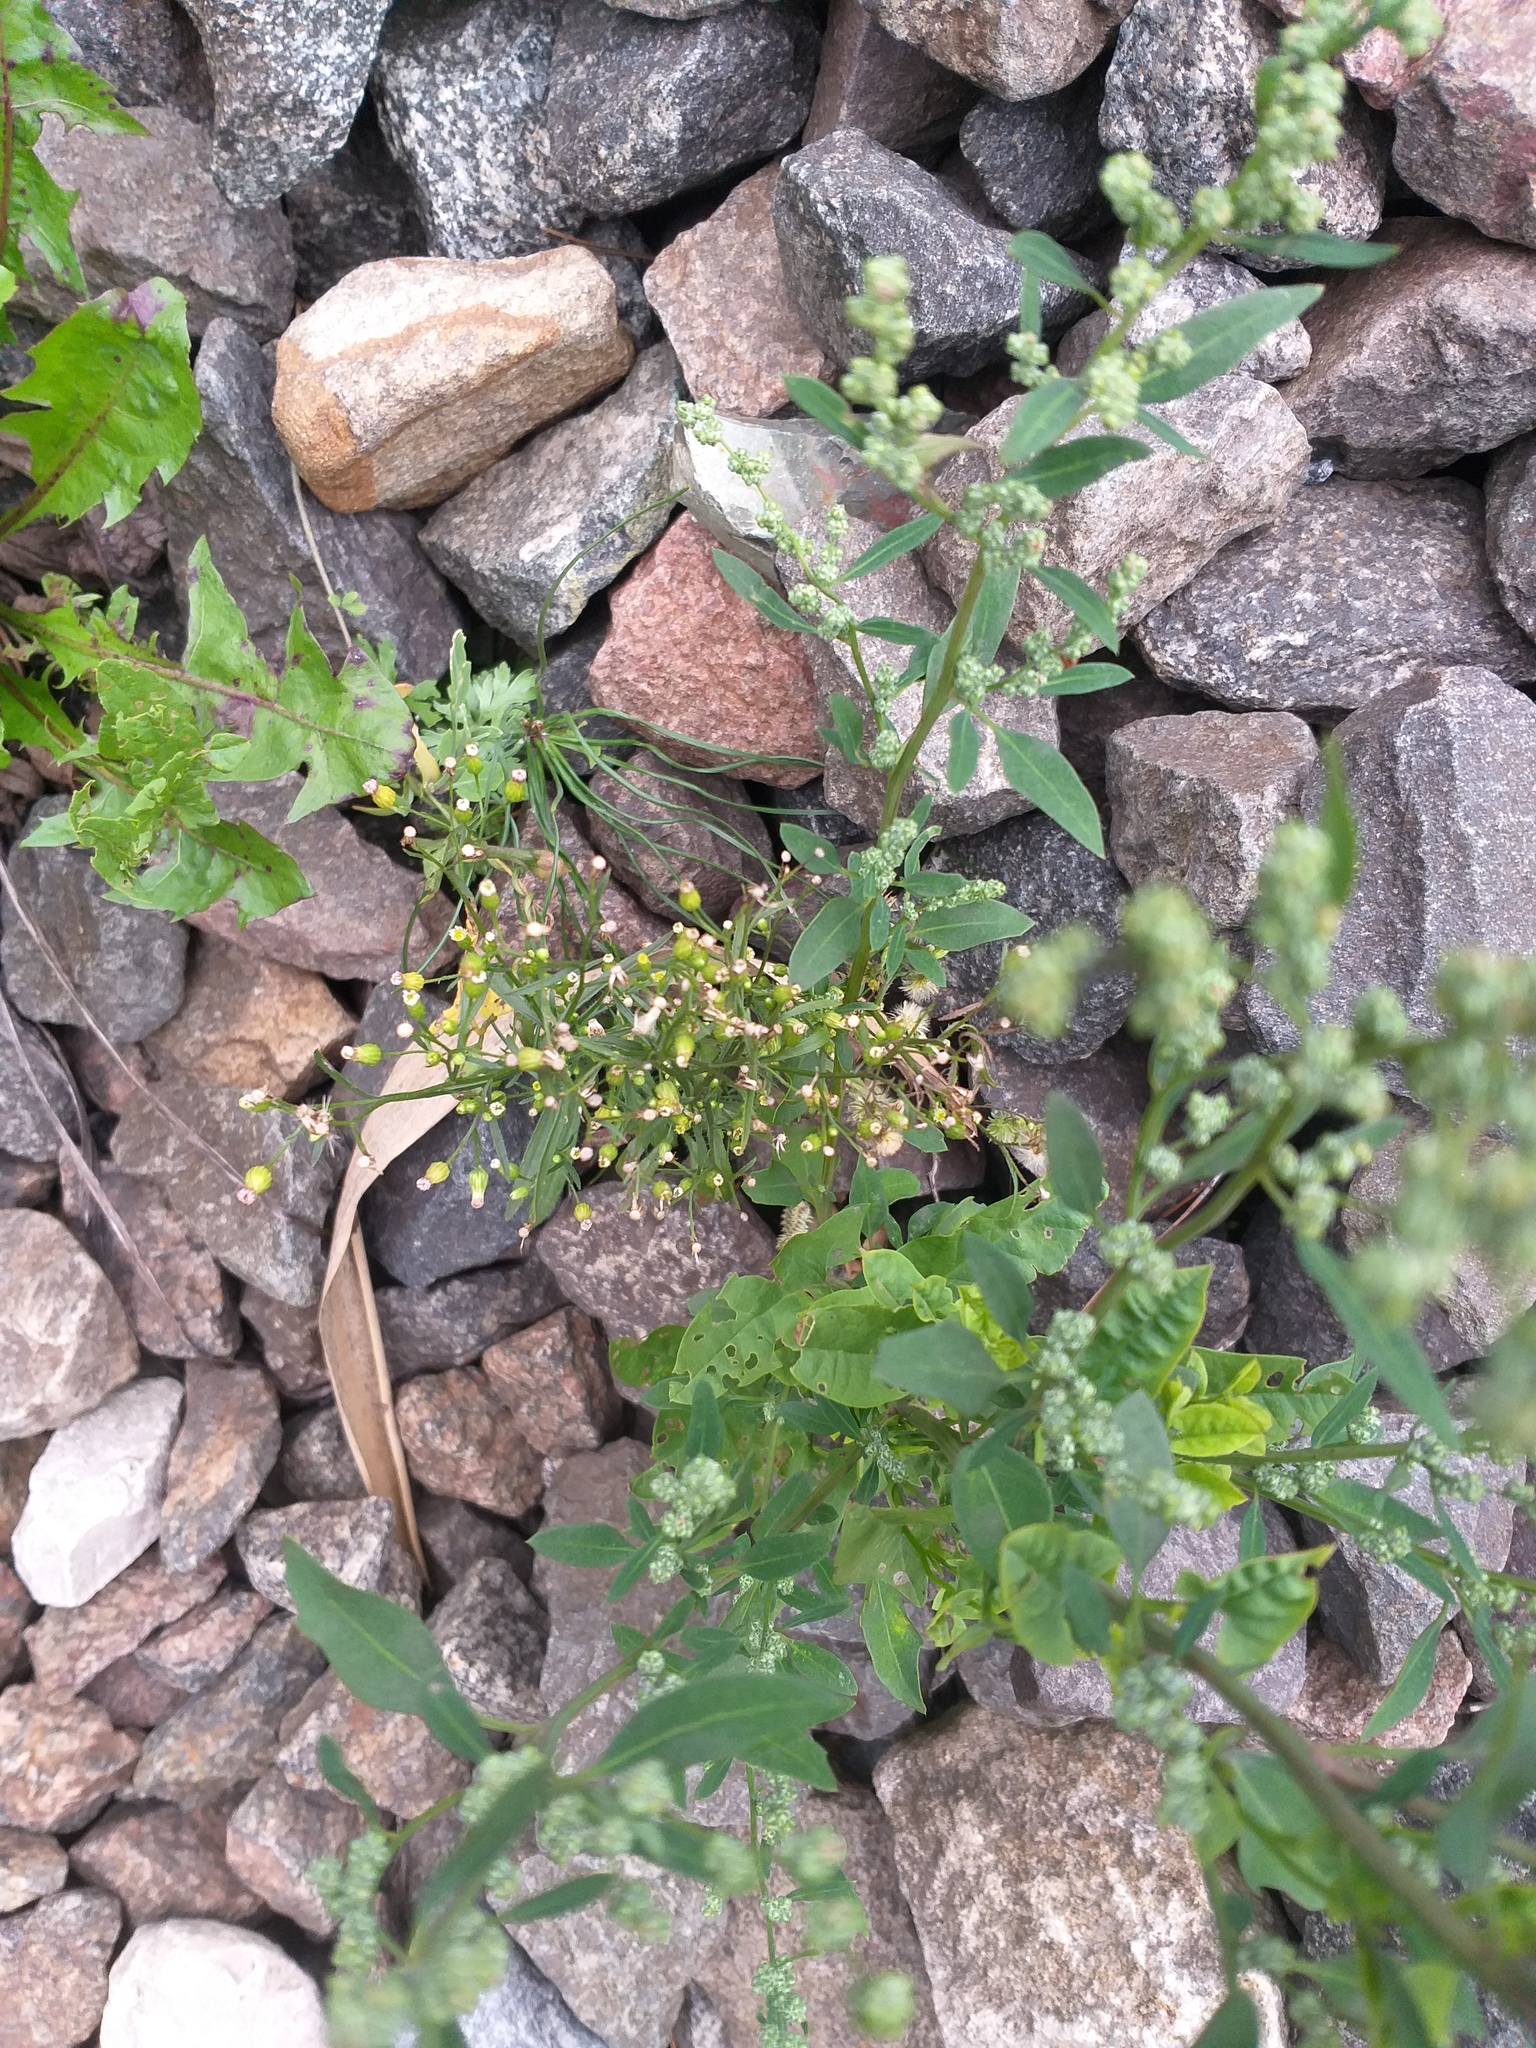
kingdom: Plantae
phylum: Tracheophyta
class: Magnoliopsida
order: Asterales
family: Asteraceae
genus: Erigeron
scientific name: Erigeron canadensis
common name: Canadian fleabane
